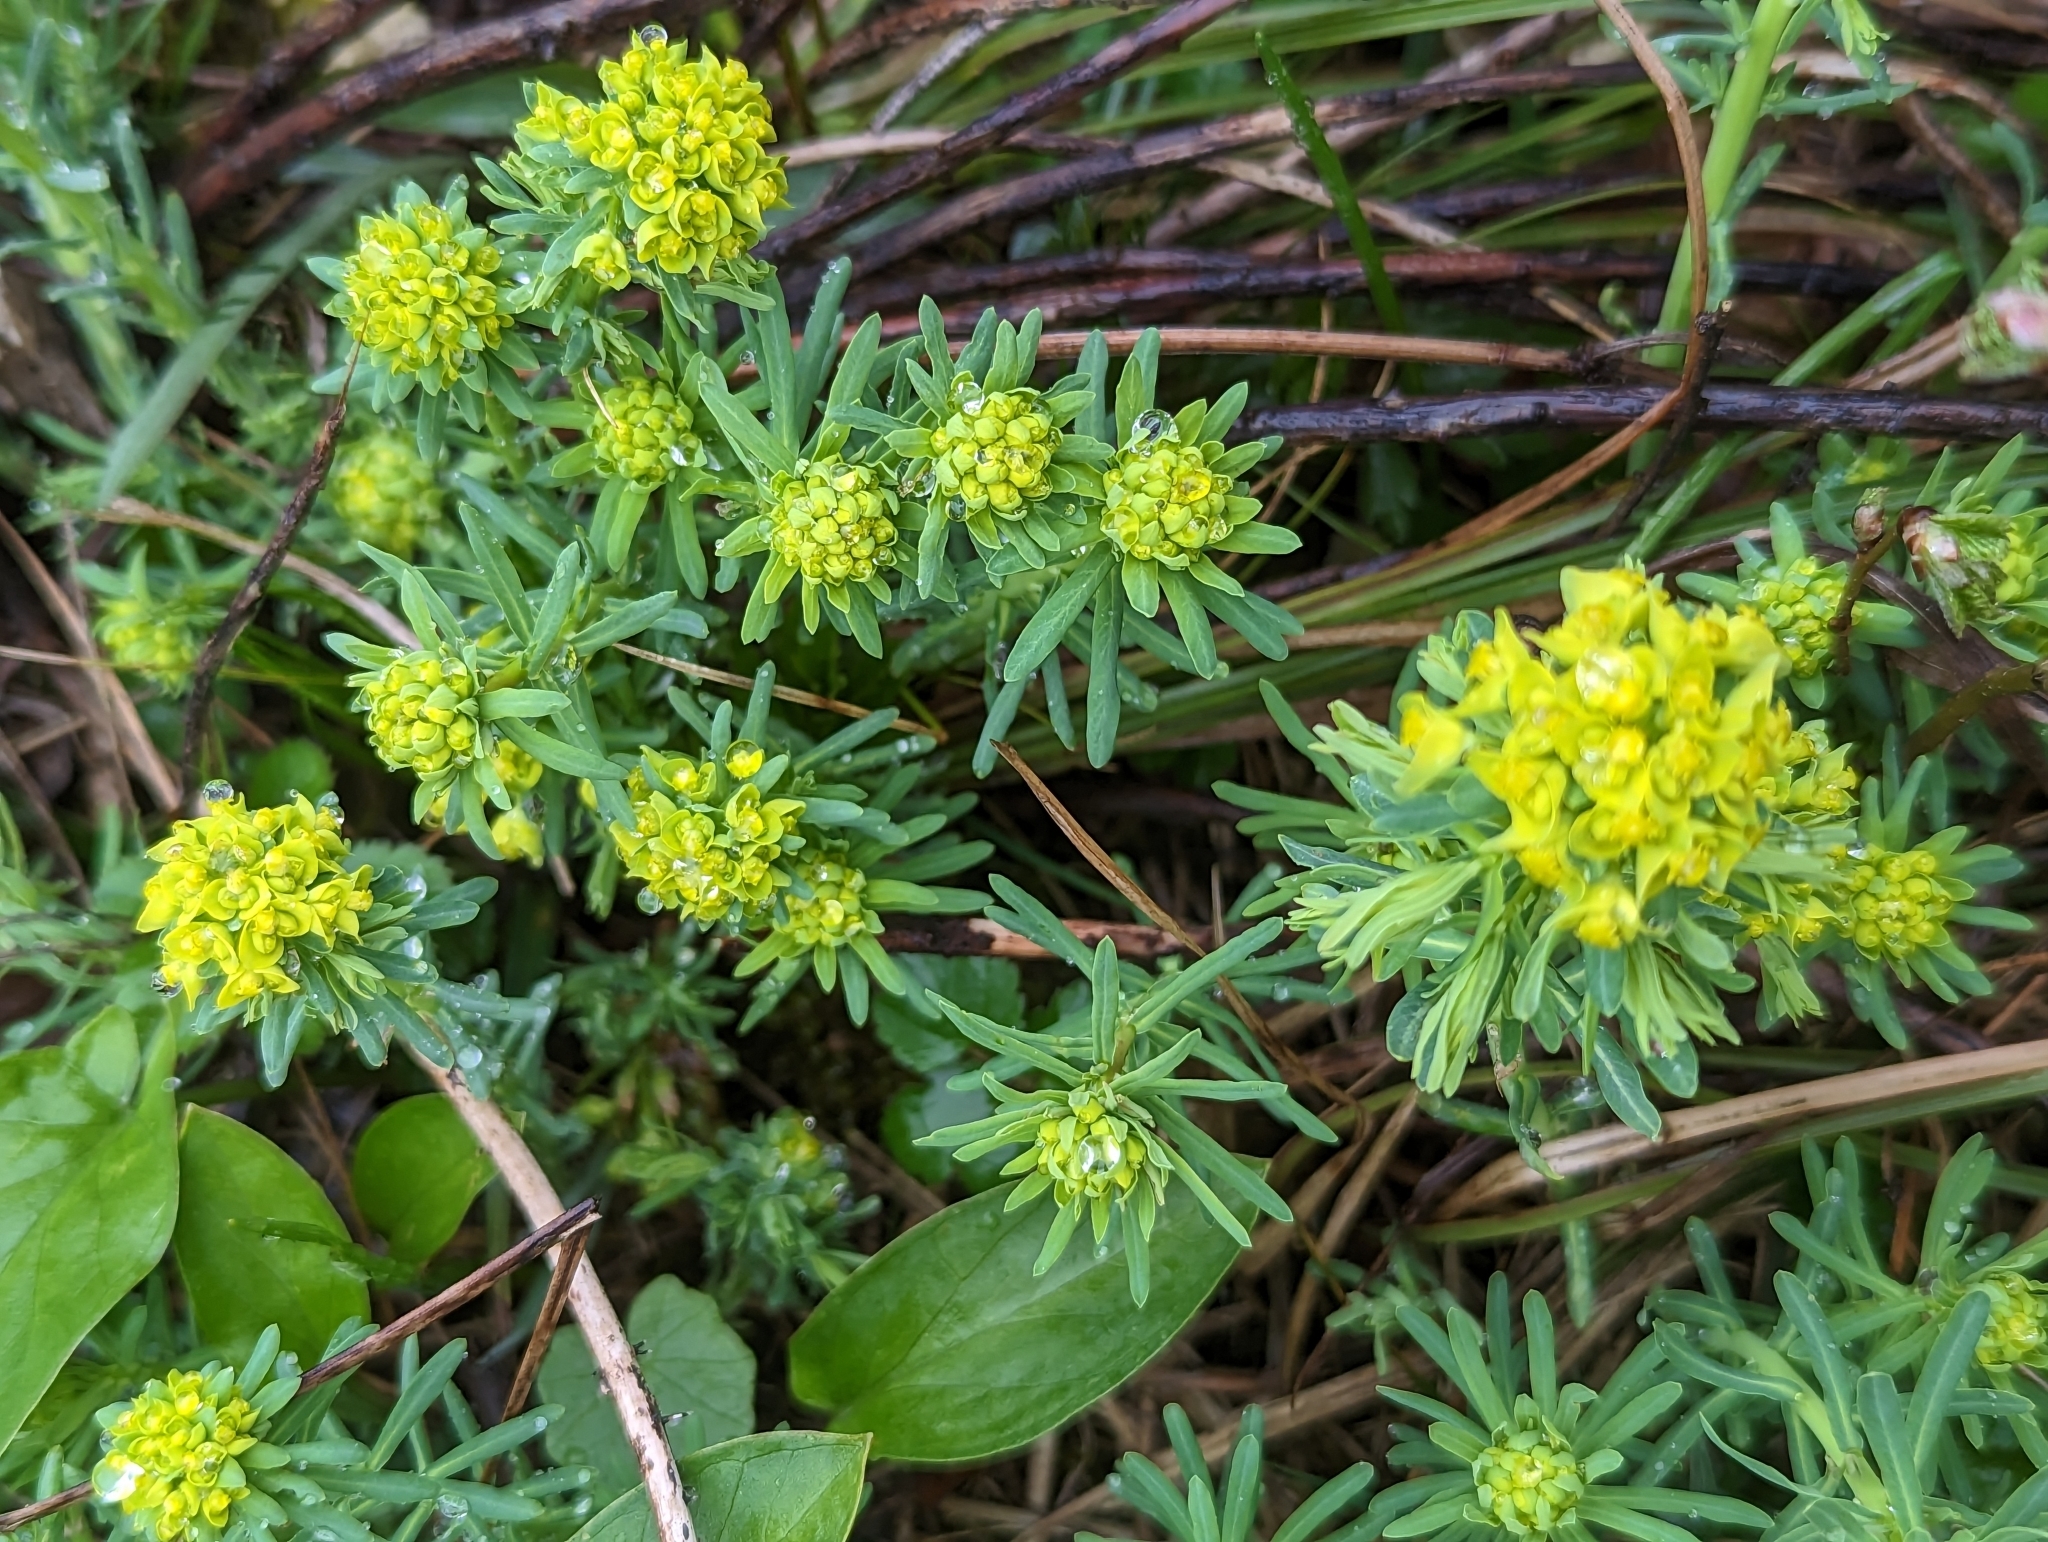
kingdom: Plantae
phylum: Tracheophyta
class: Magnoliopsida
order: Malpighiales
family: Euphorbiaceae
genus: Euphorbia
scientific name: Euphorbia cyparissias
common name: Cypress spurge
